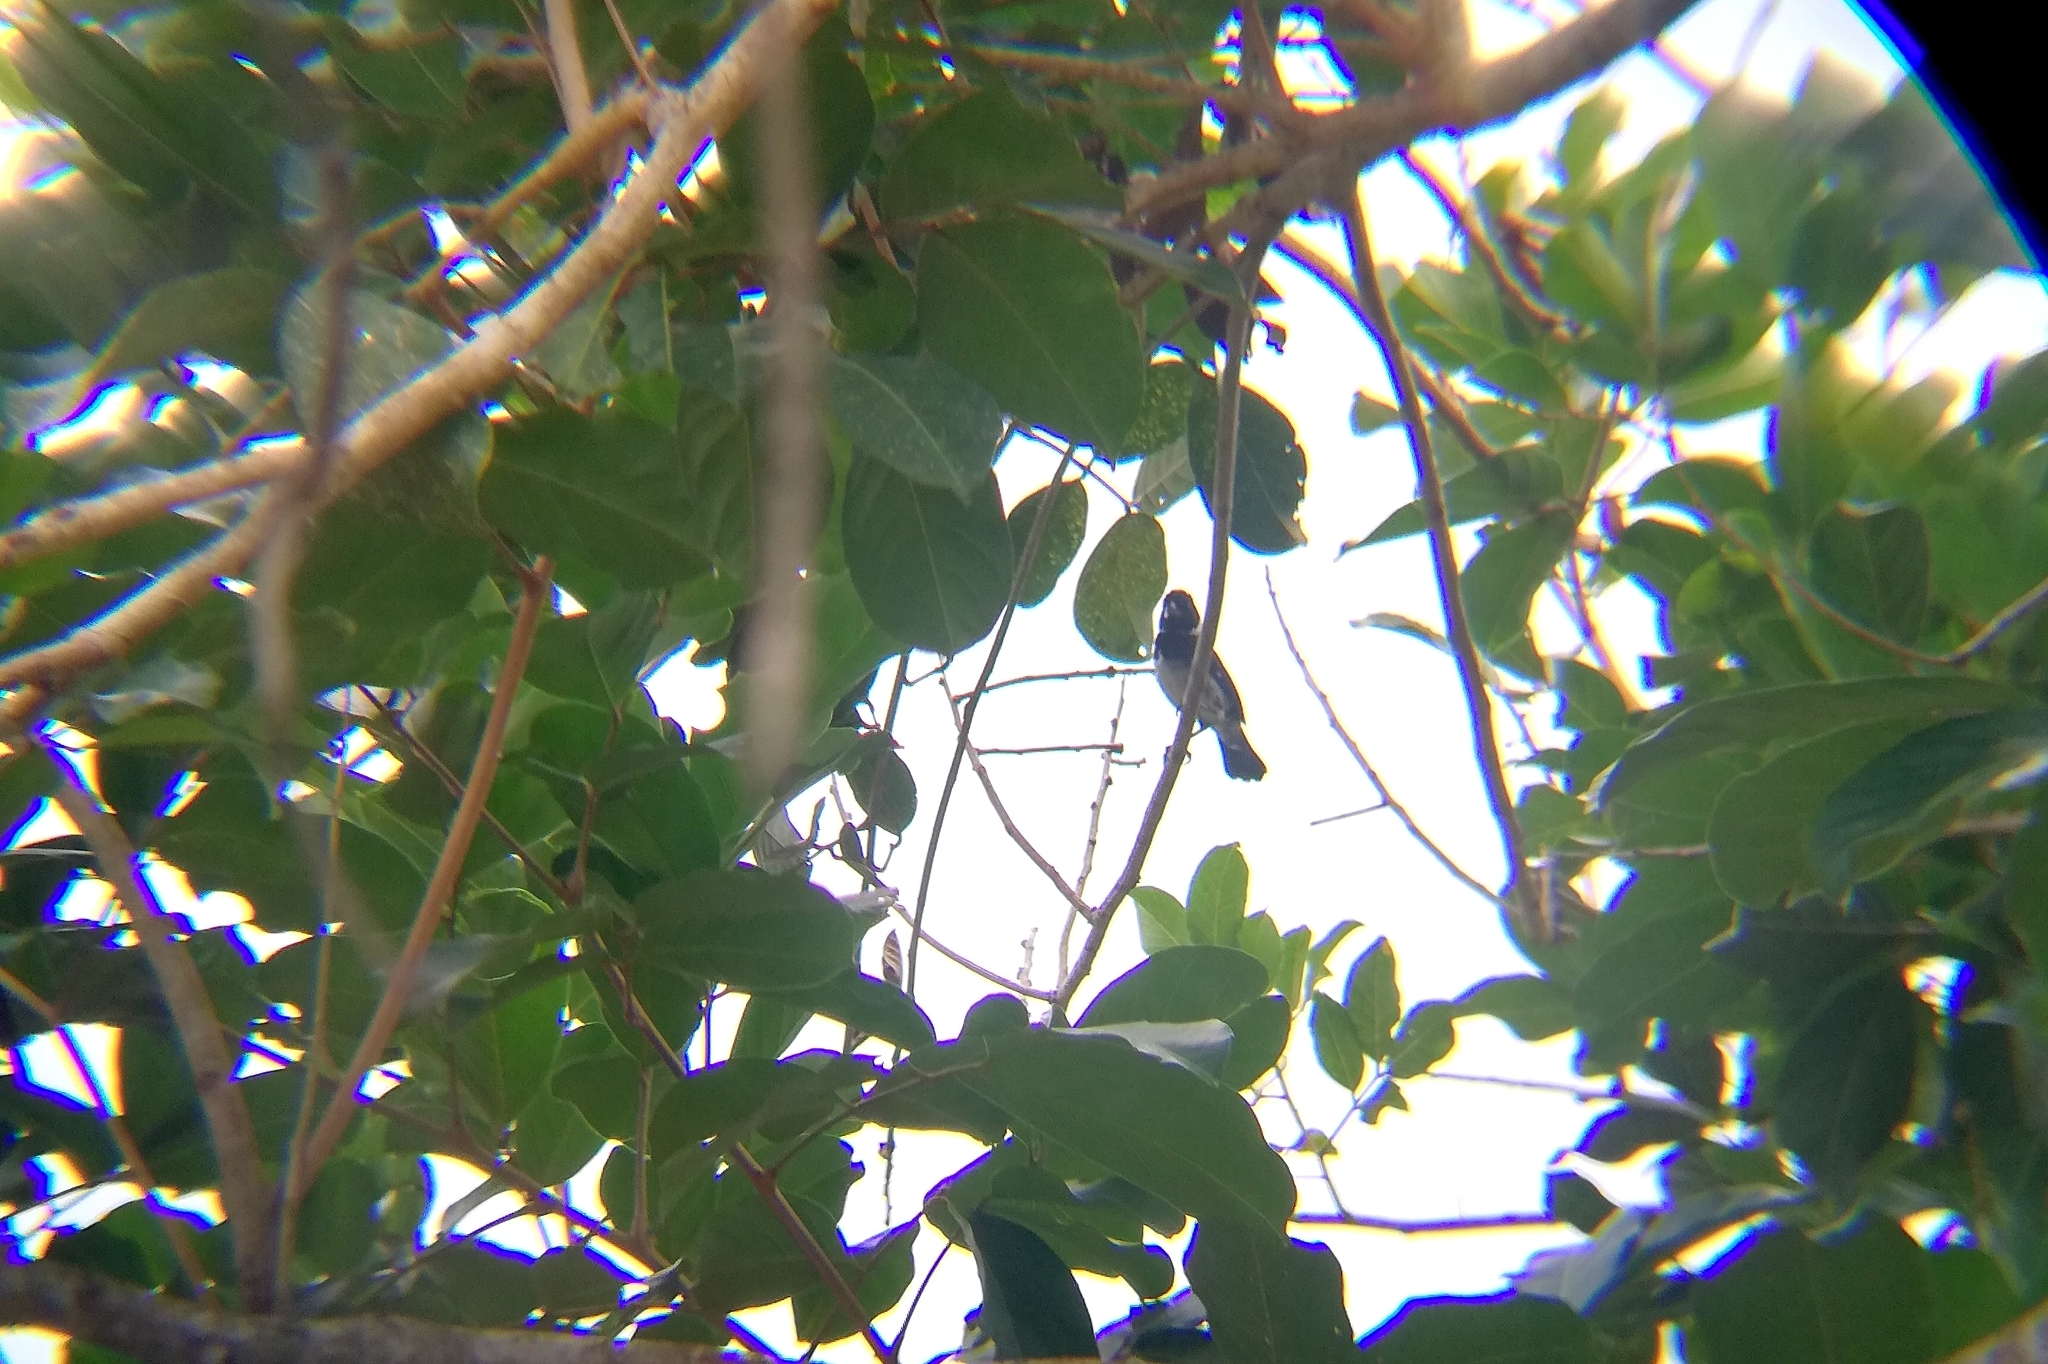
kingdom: Animalia
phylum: Chordata
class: Aves
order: Passeriformes
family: Thraupidae
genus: Sporophila
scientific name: Sporophila corvina
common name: Variable seedeater
